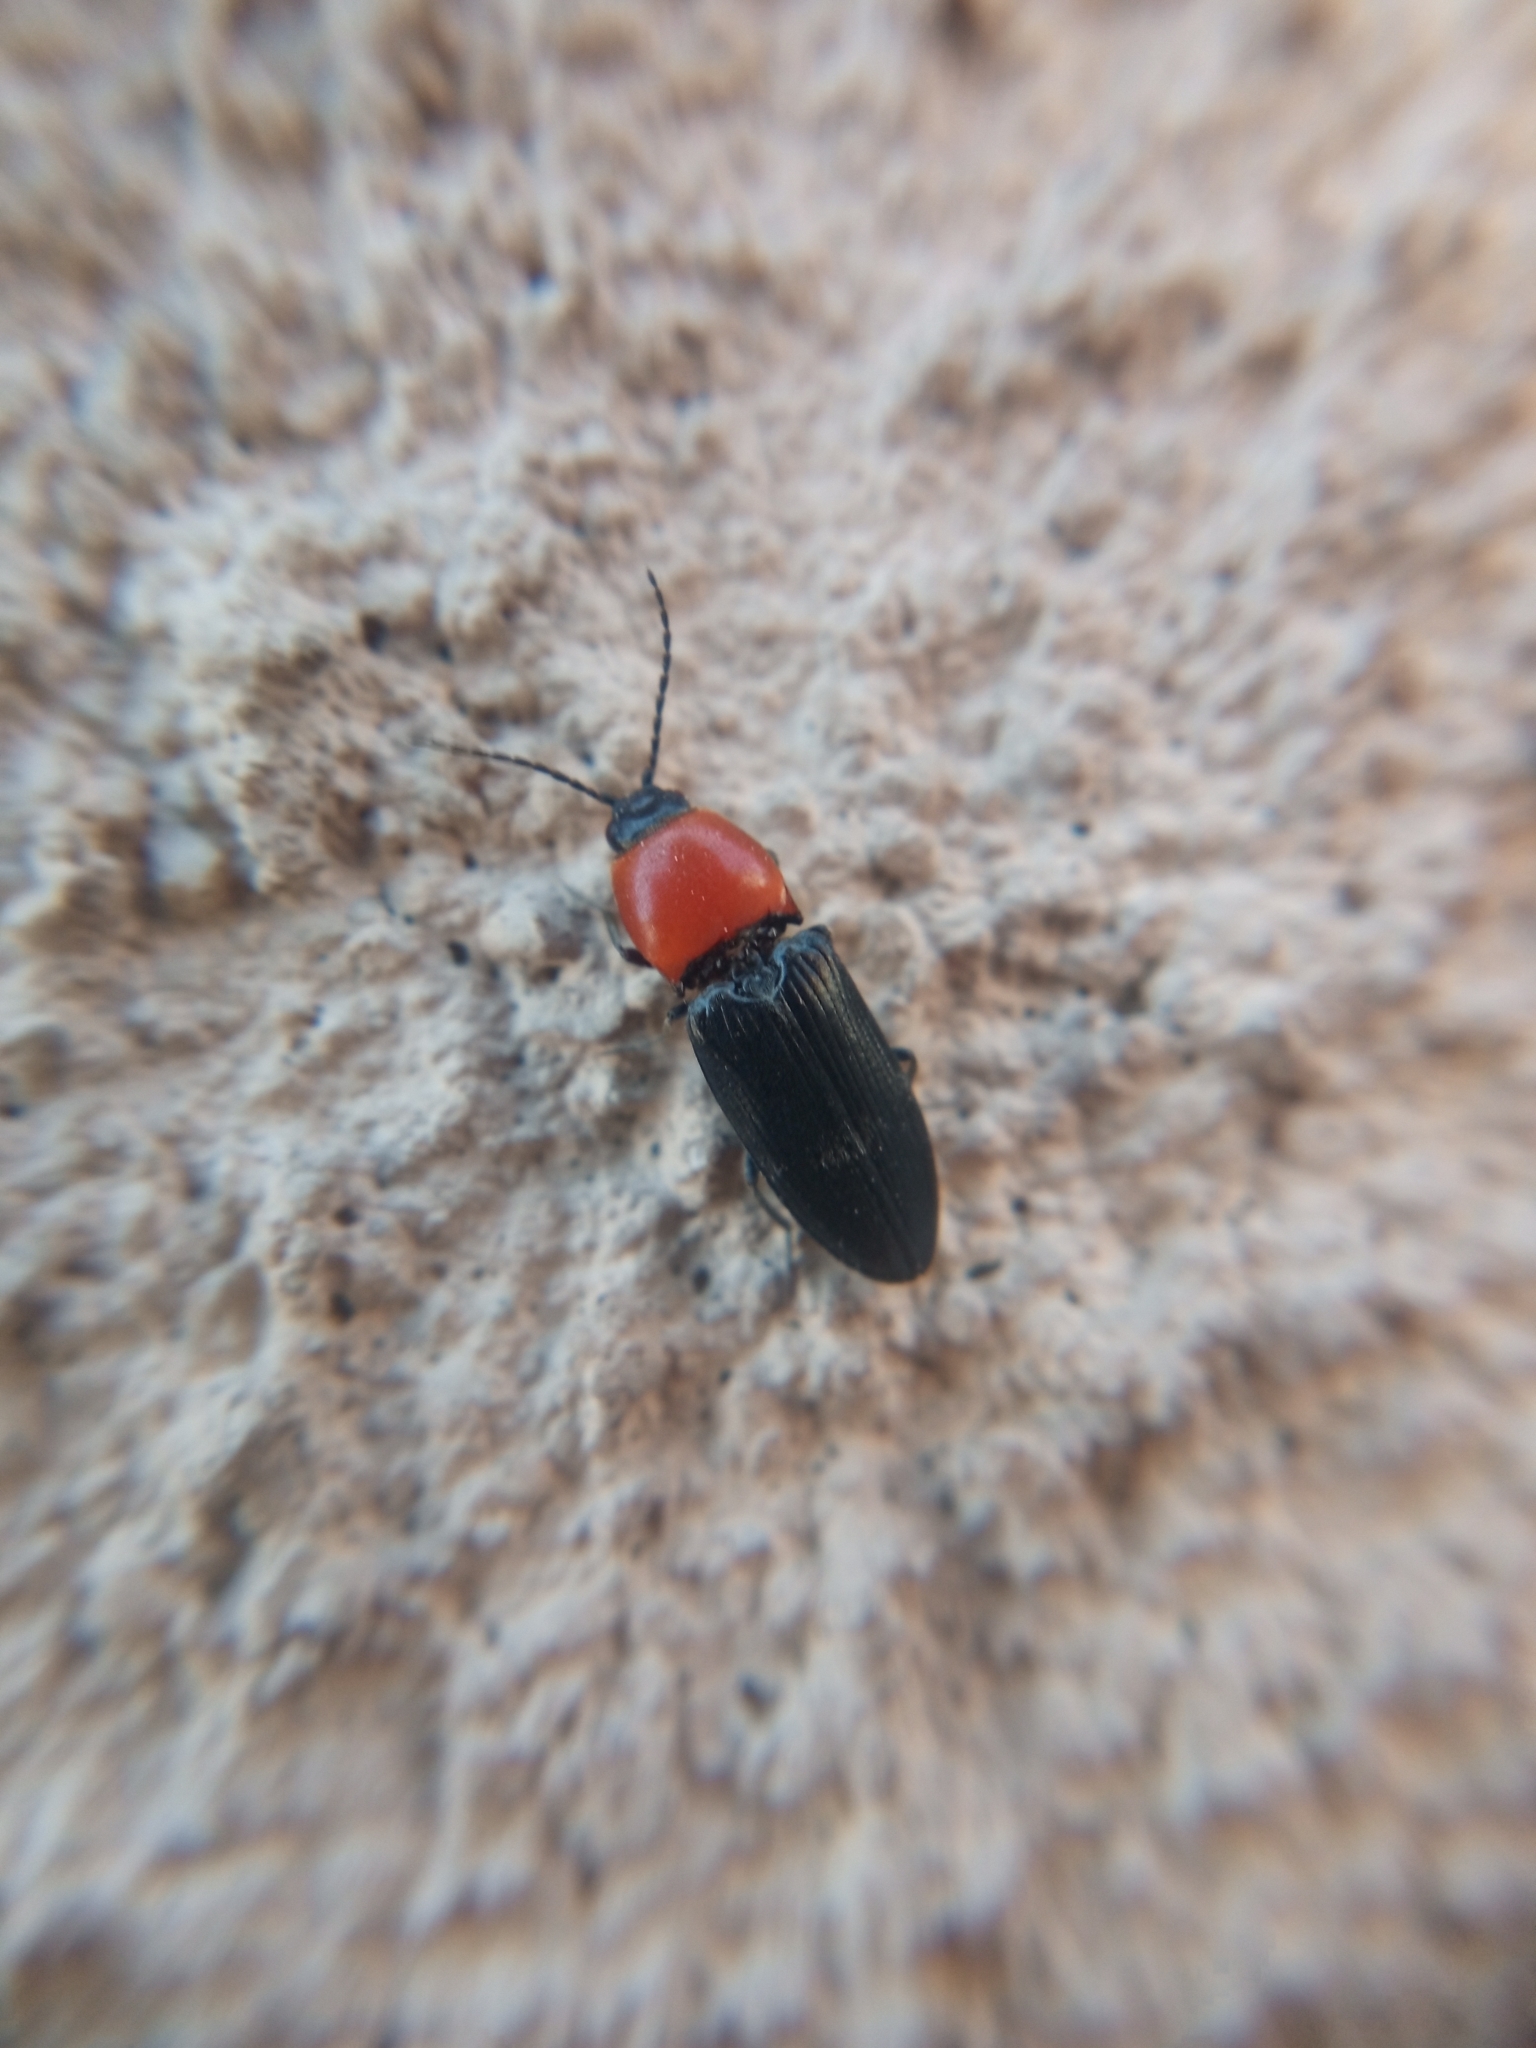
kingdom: Animalia
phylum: Arthropoda
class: Insecta
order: Coleoptera
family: Elateridae
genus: Cardiophorus
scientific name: Cardiophorus gramineus
